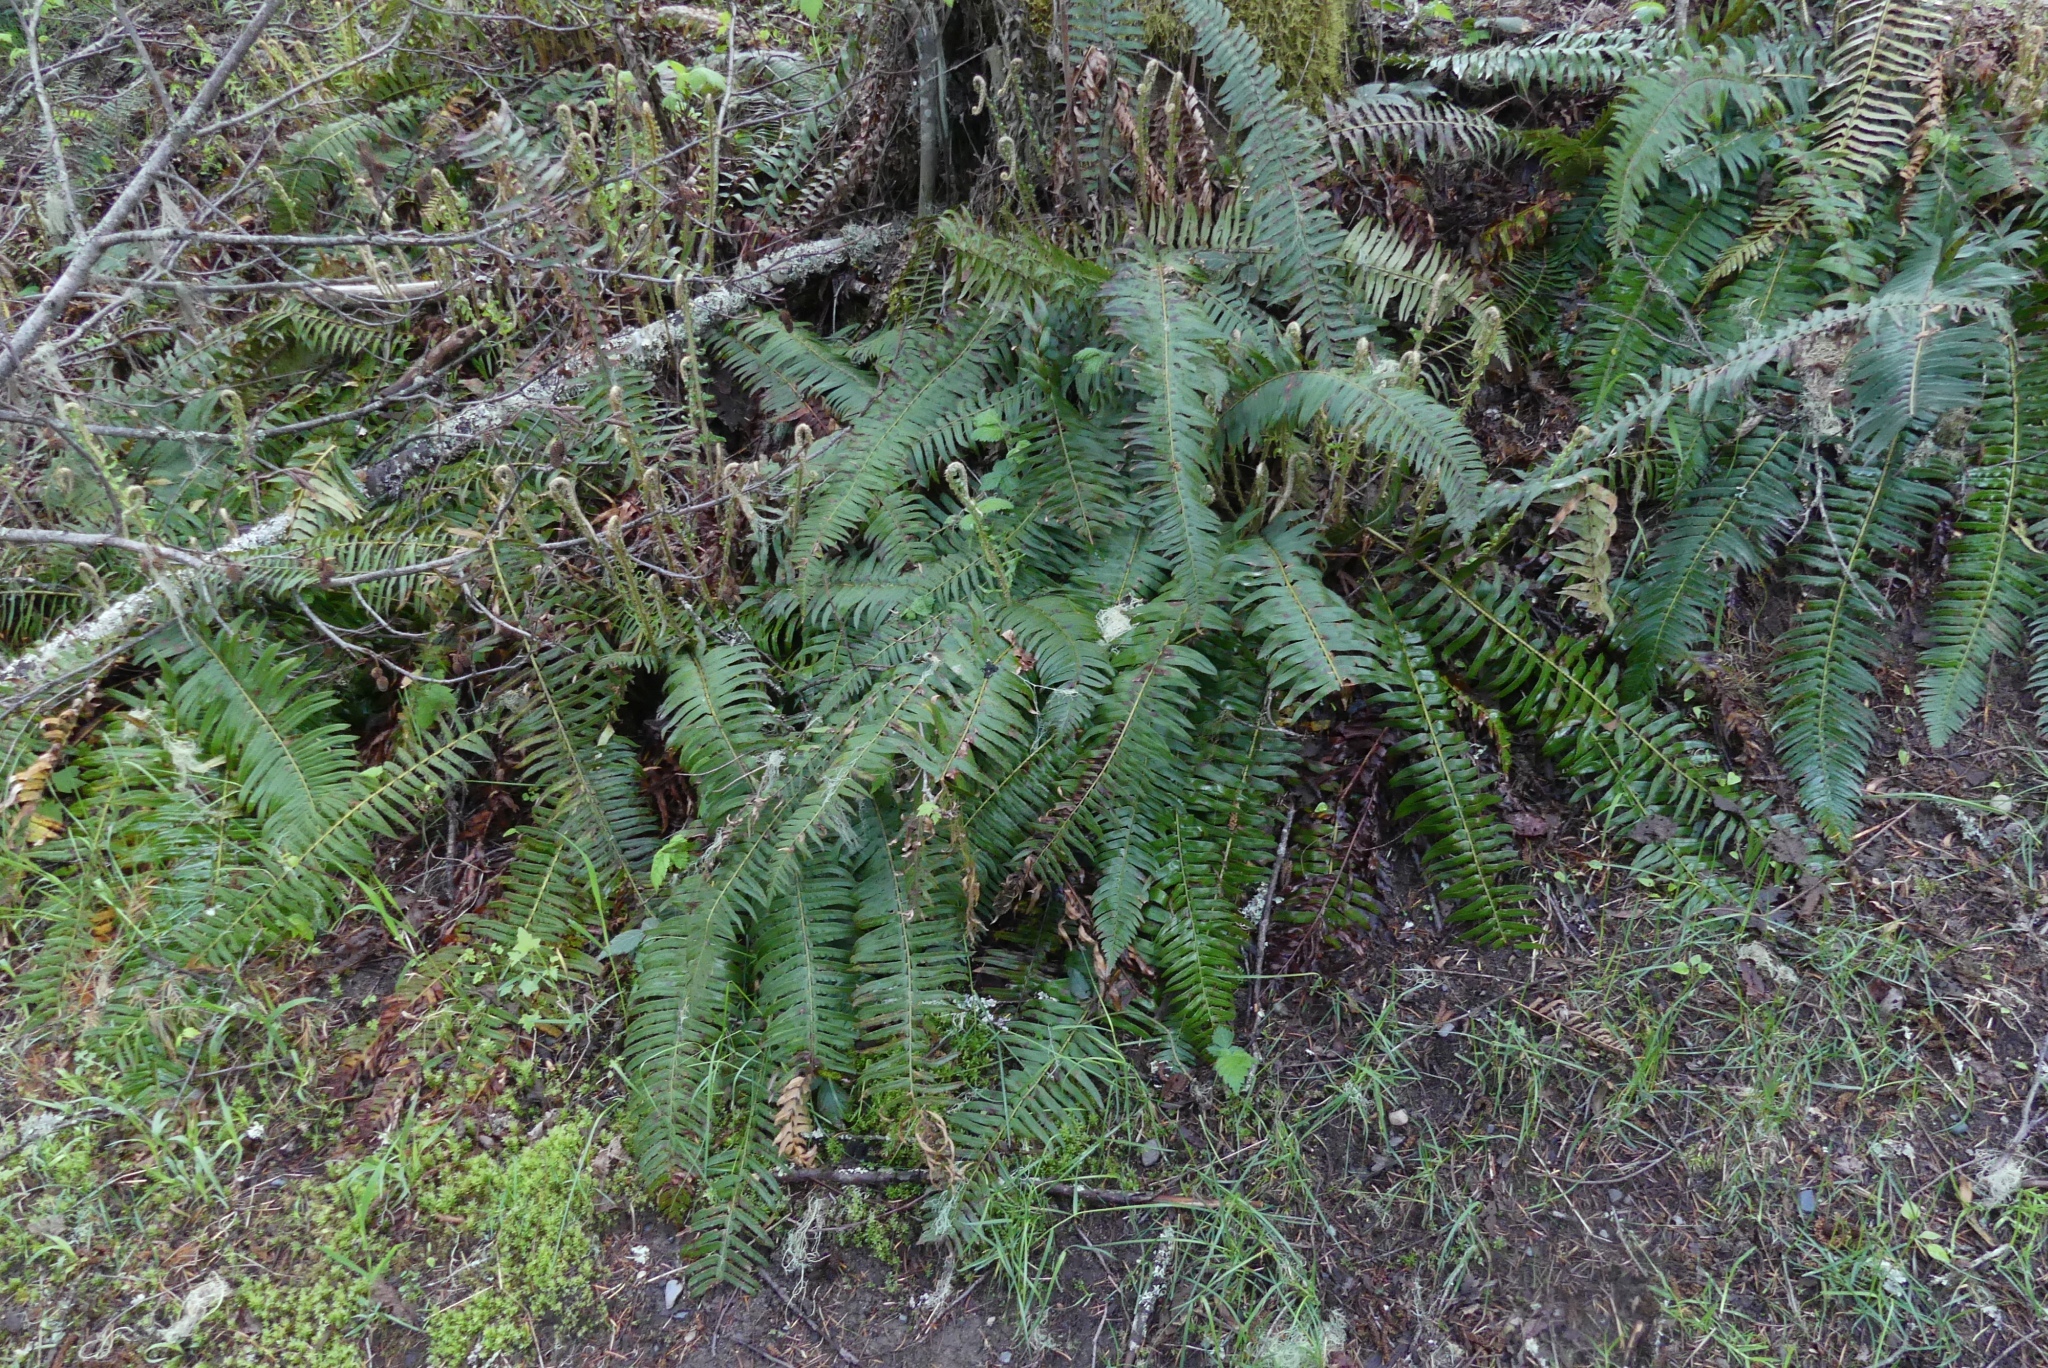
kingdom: Plantae
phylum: Tracheophyta
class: Polypodiopsida
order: Polypodiales
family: Dryopteridaceae
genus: Polystichum
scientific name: Polystichum munitum
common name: Western sword-fern
